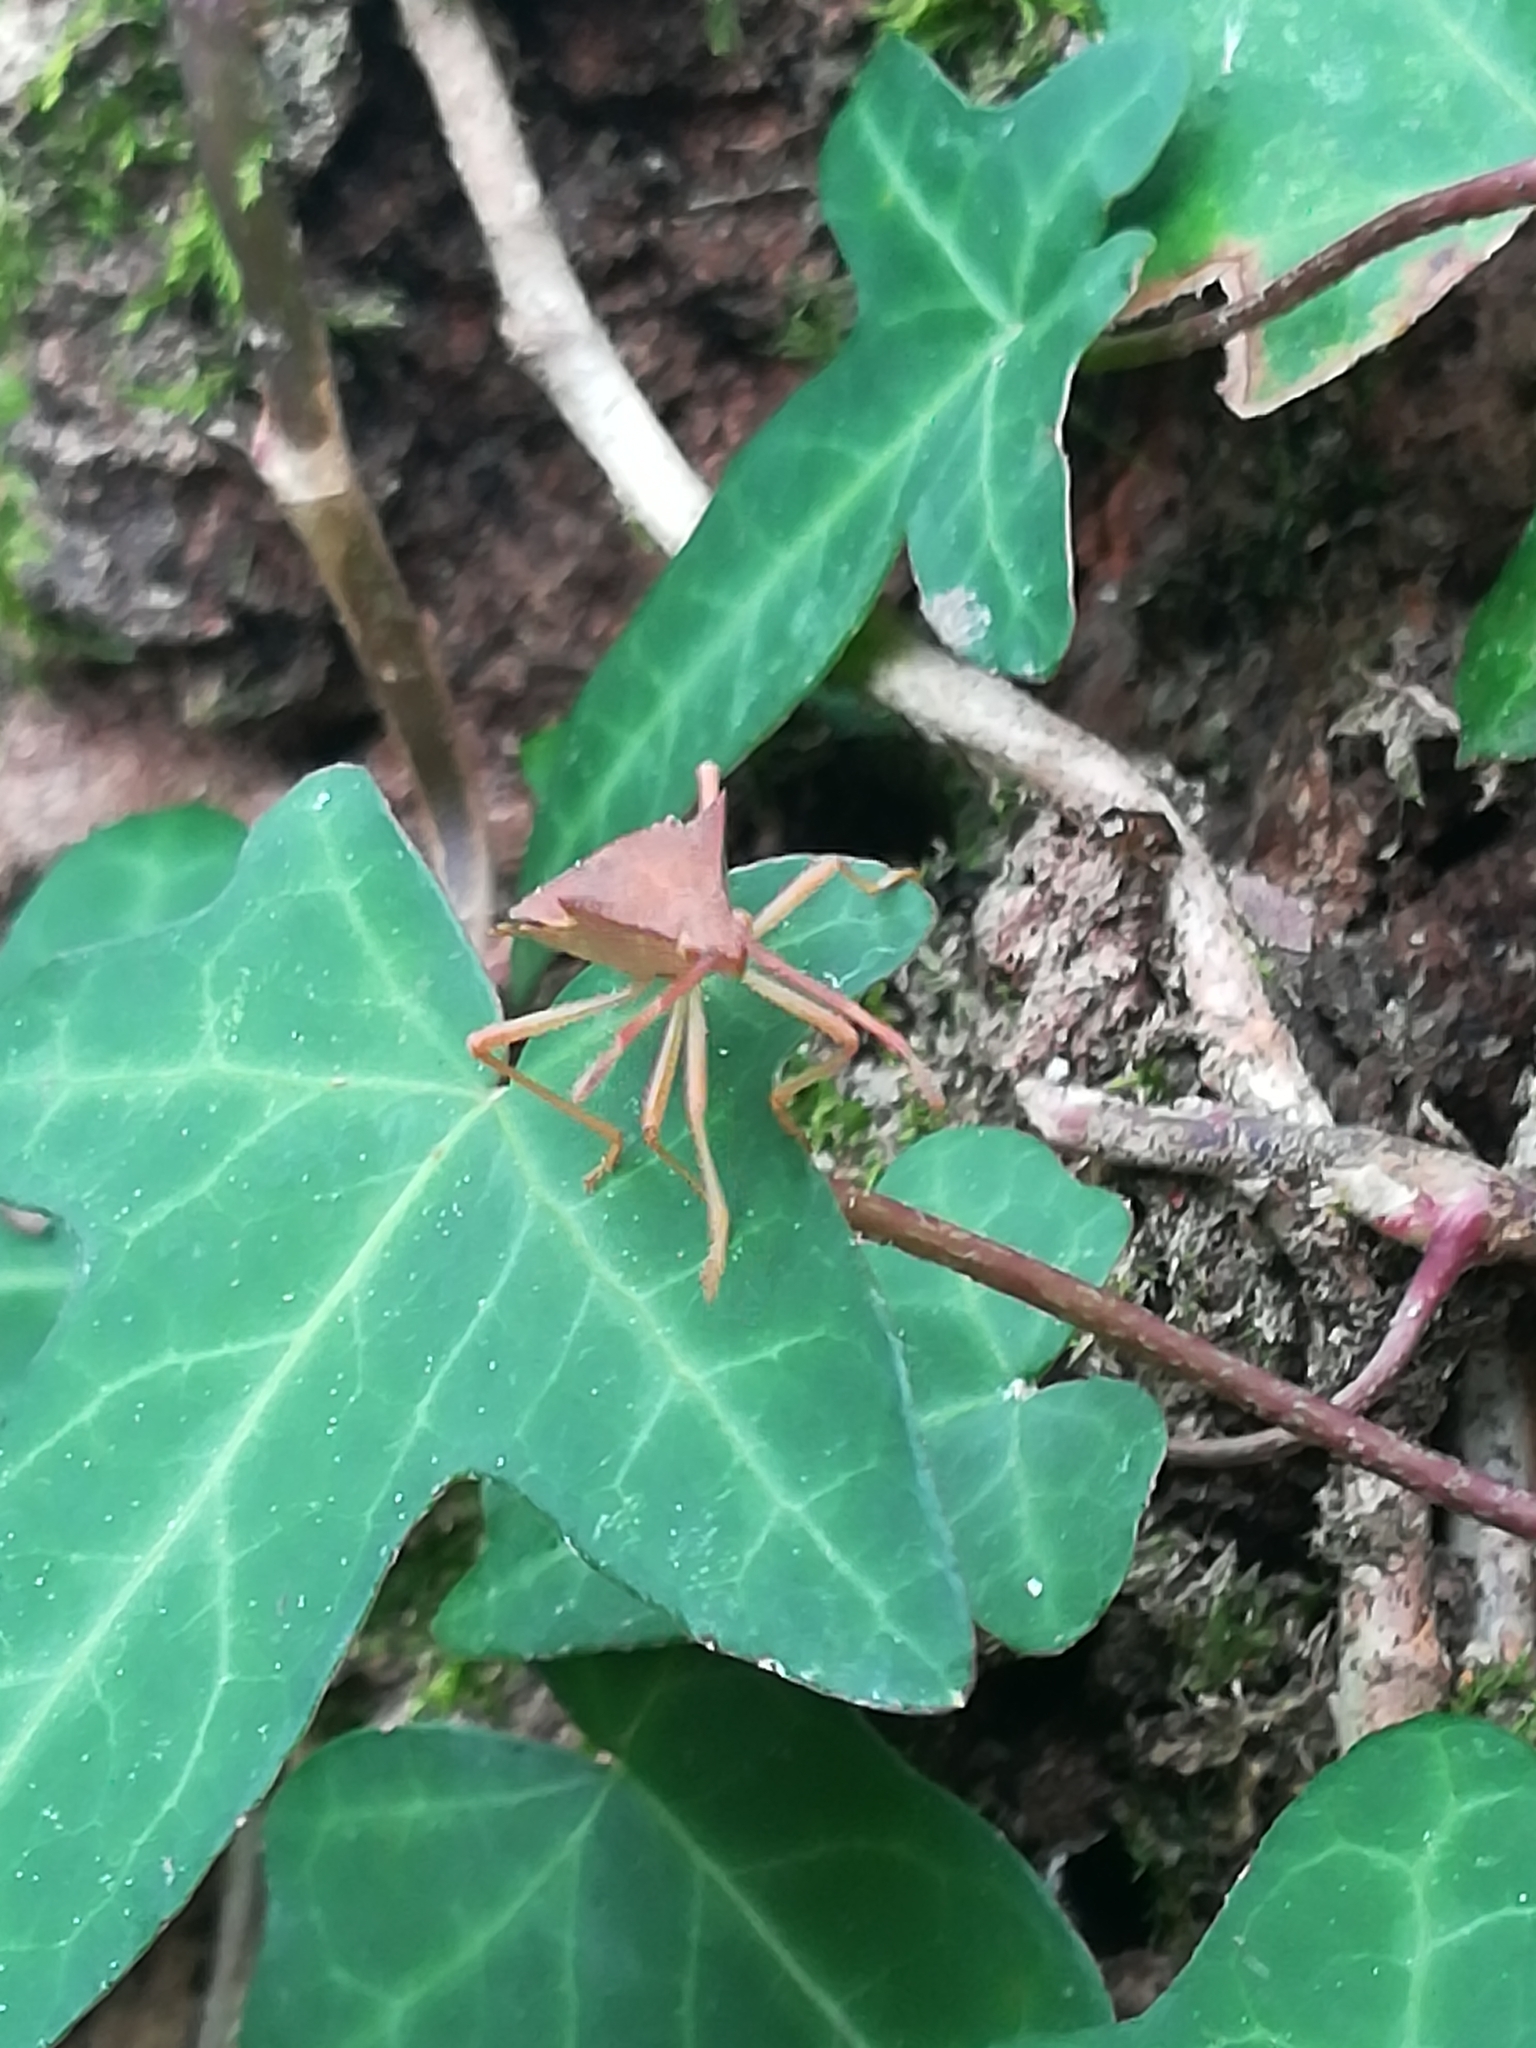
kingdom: Animalia
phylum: Arthropoda
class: Insecta
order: Hemiptera
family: Coreidae
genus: Gonocerus
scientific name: Gonocerus acuteangulatus
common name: Box bug
